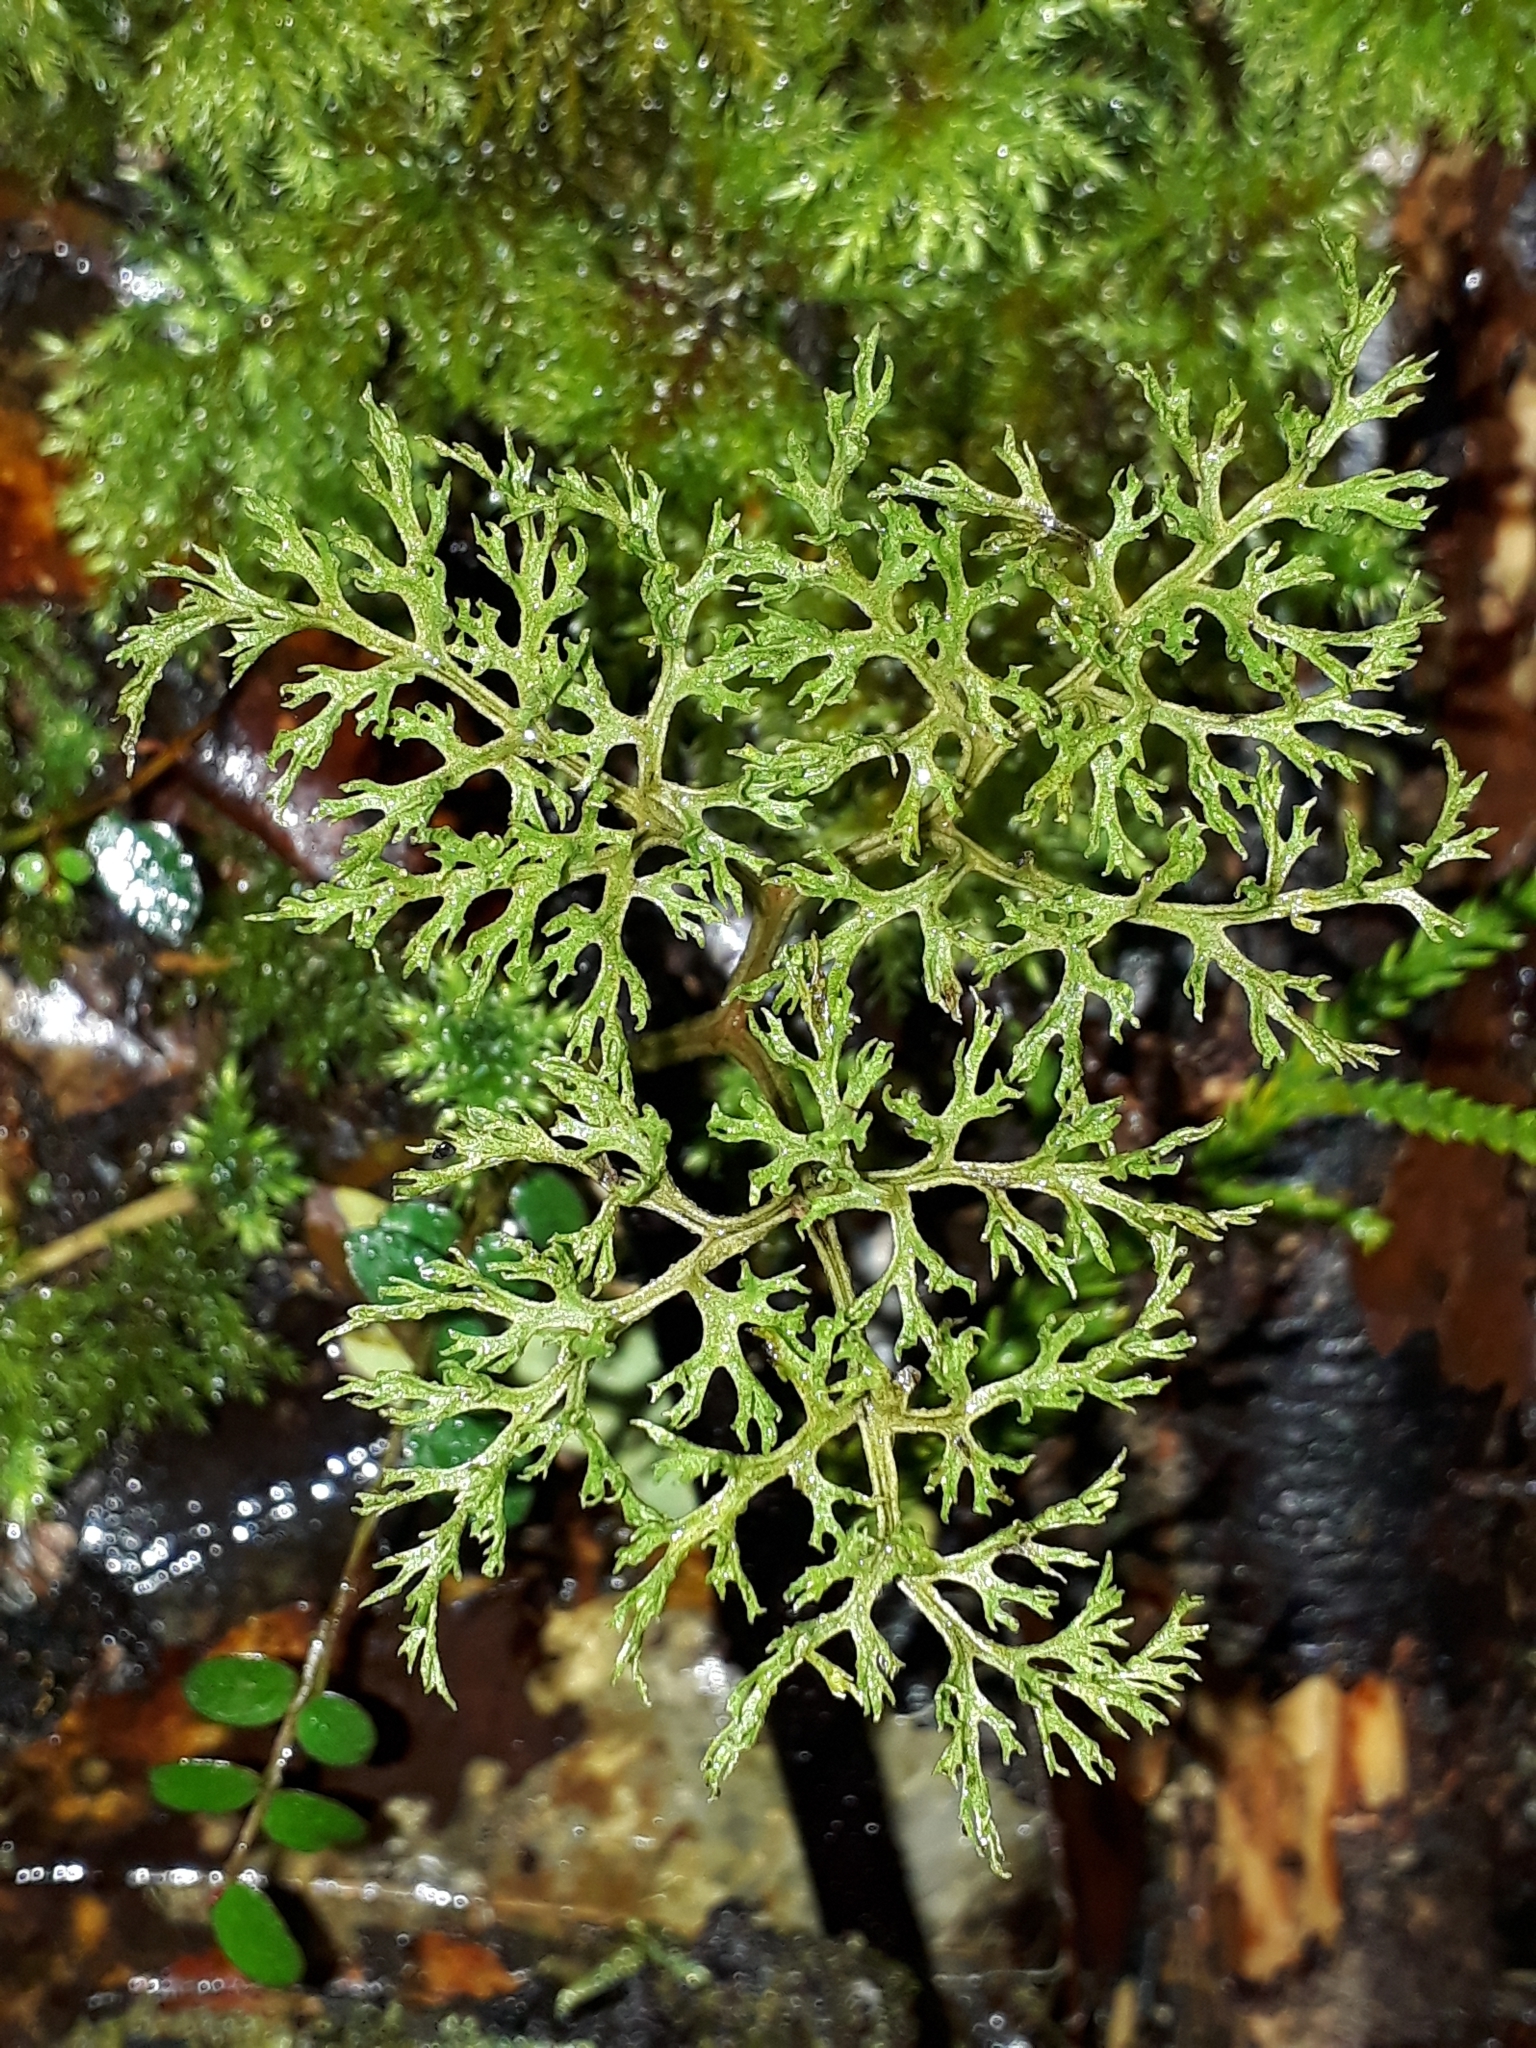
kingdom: Plantae
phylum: Tracheophyta
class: Polypodiopsida
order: Ophioglossales
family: Ophioglossaceae
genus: Sceptridium
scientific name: Sceptridium biforme
